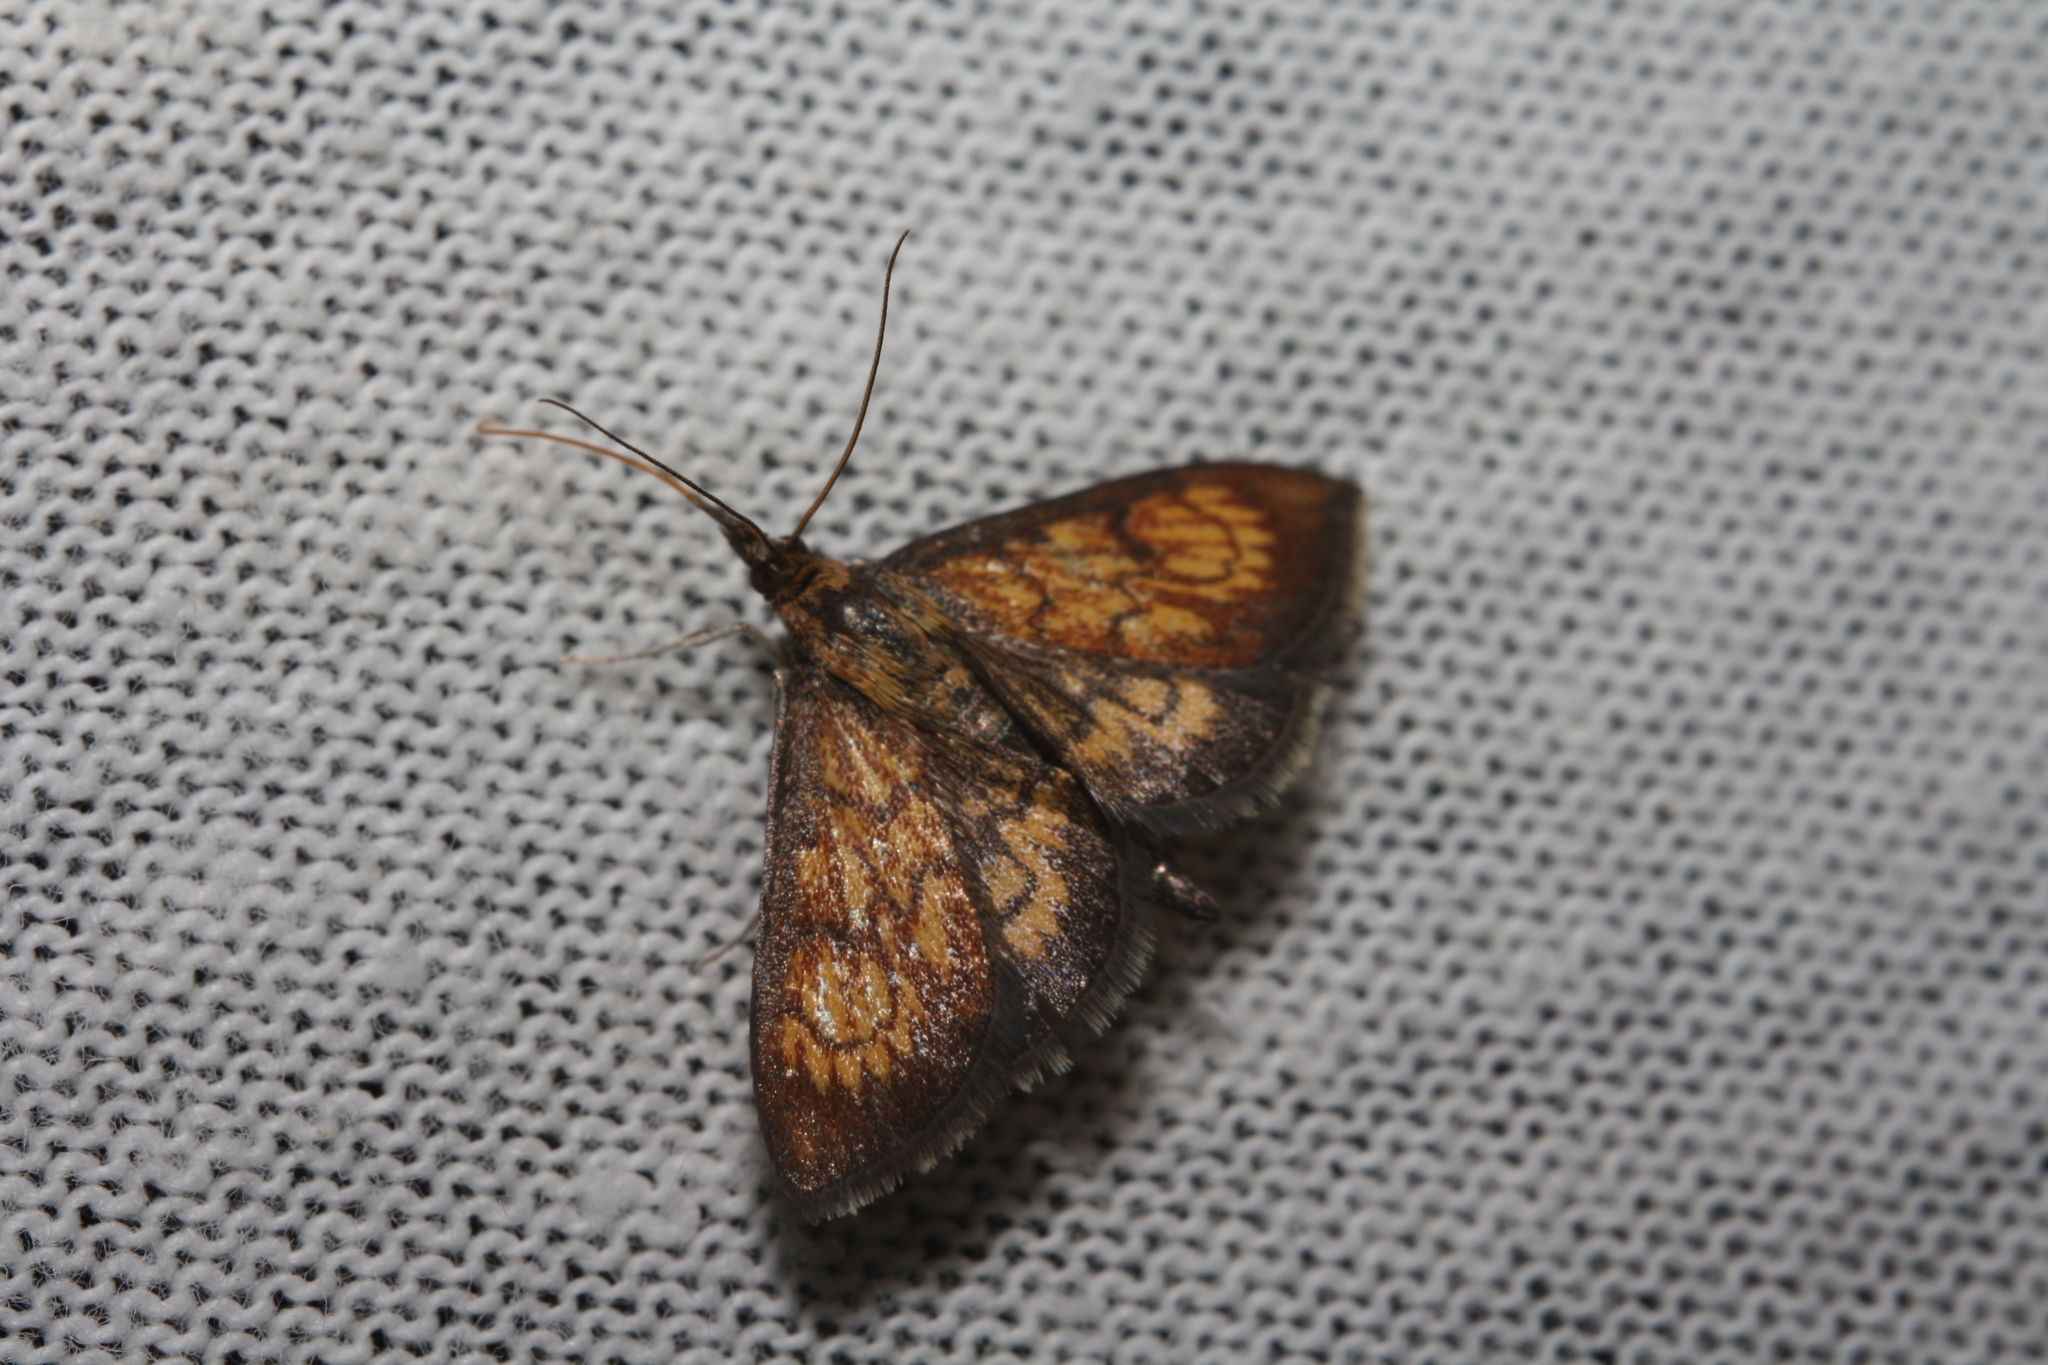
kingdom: Animalia
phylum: Arthropoda
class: Insecta
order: Lepidoptera
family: Crambidae
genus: Ecpyrrhorrhoe
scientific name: Ecpyrrhorrhoe rubiginalis
